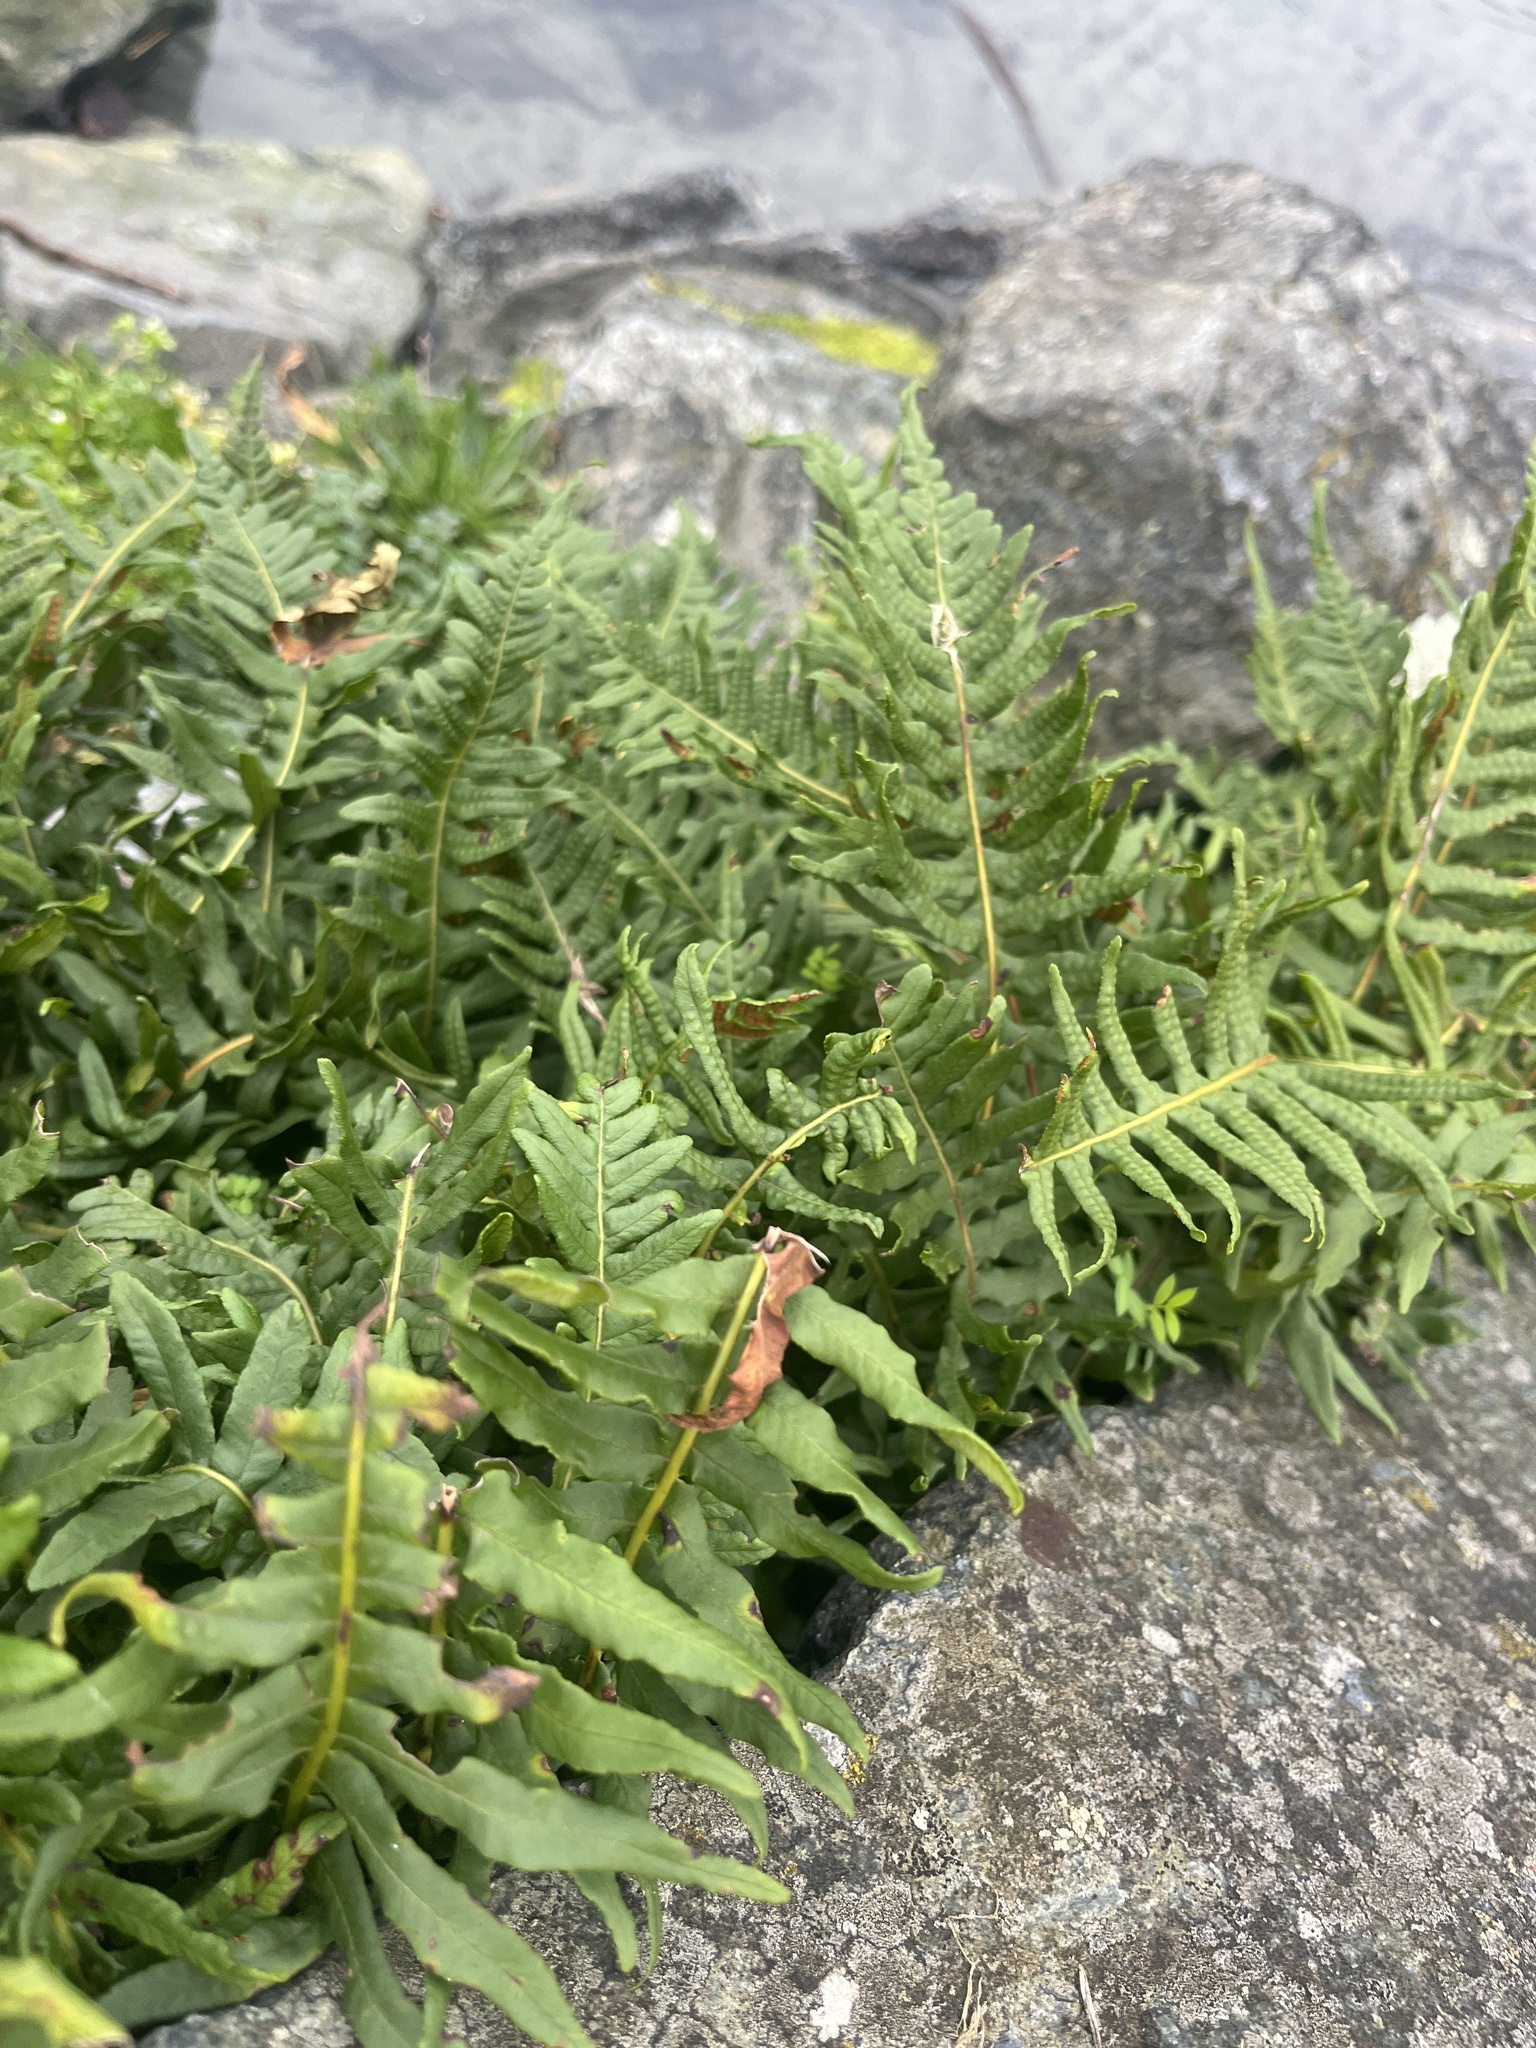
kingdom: Plantae
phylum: Tracheophyta
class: Polypodiopsida
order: Polypodiales
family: Polypodiaceae
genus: Polypodium
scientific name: Polypodium glycyrrhiza
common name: Licorice fern
